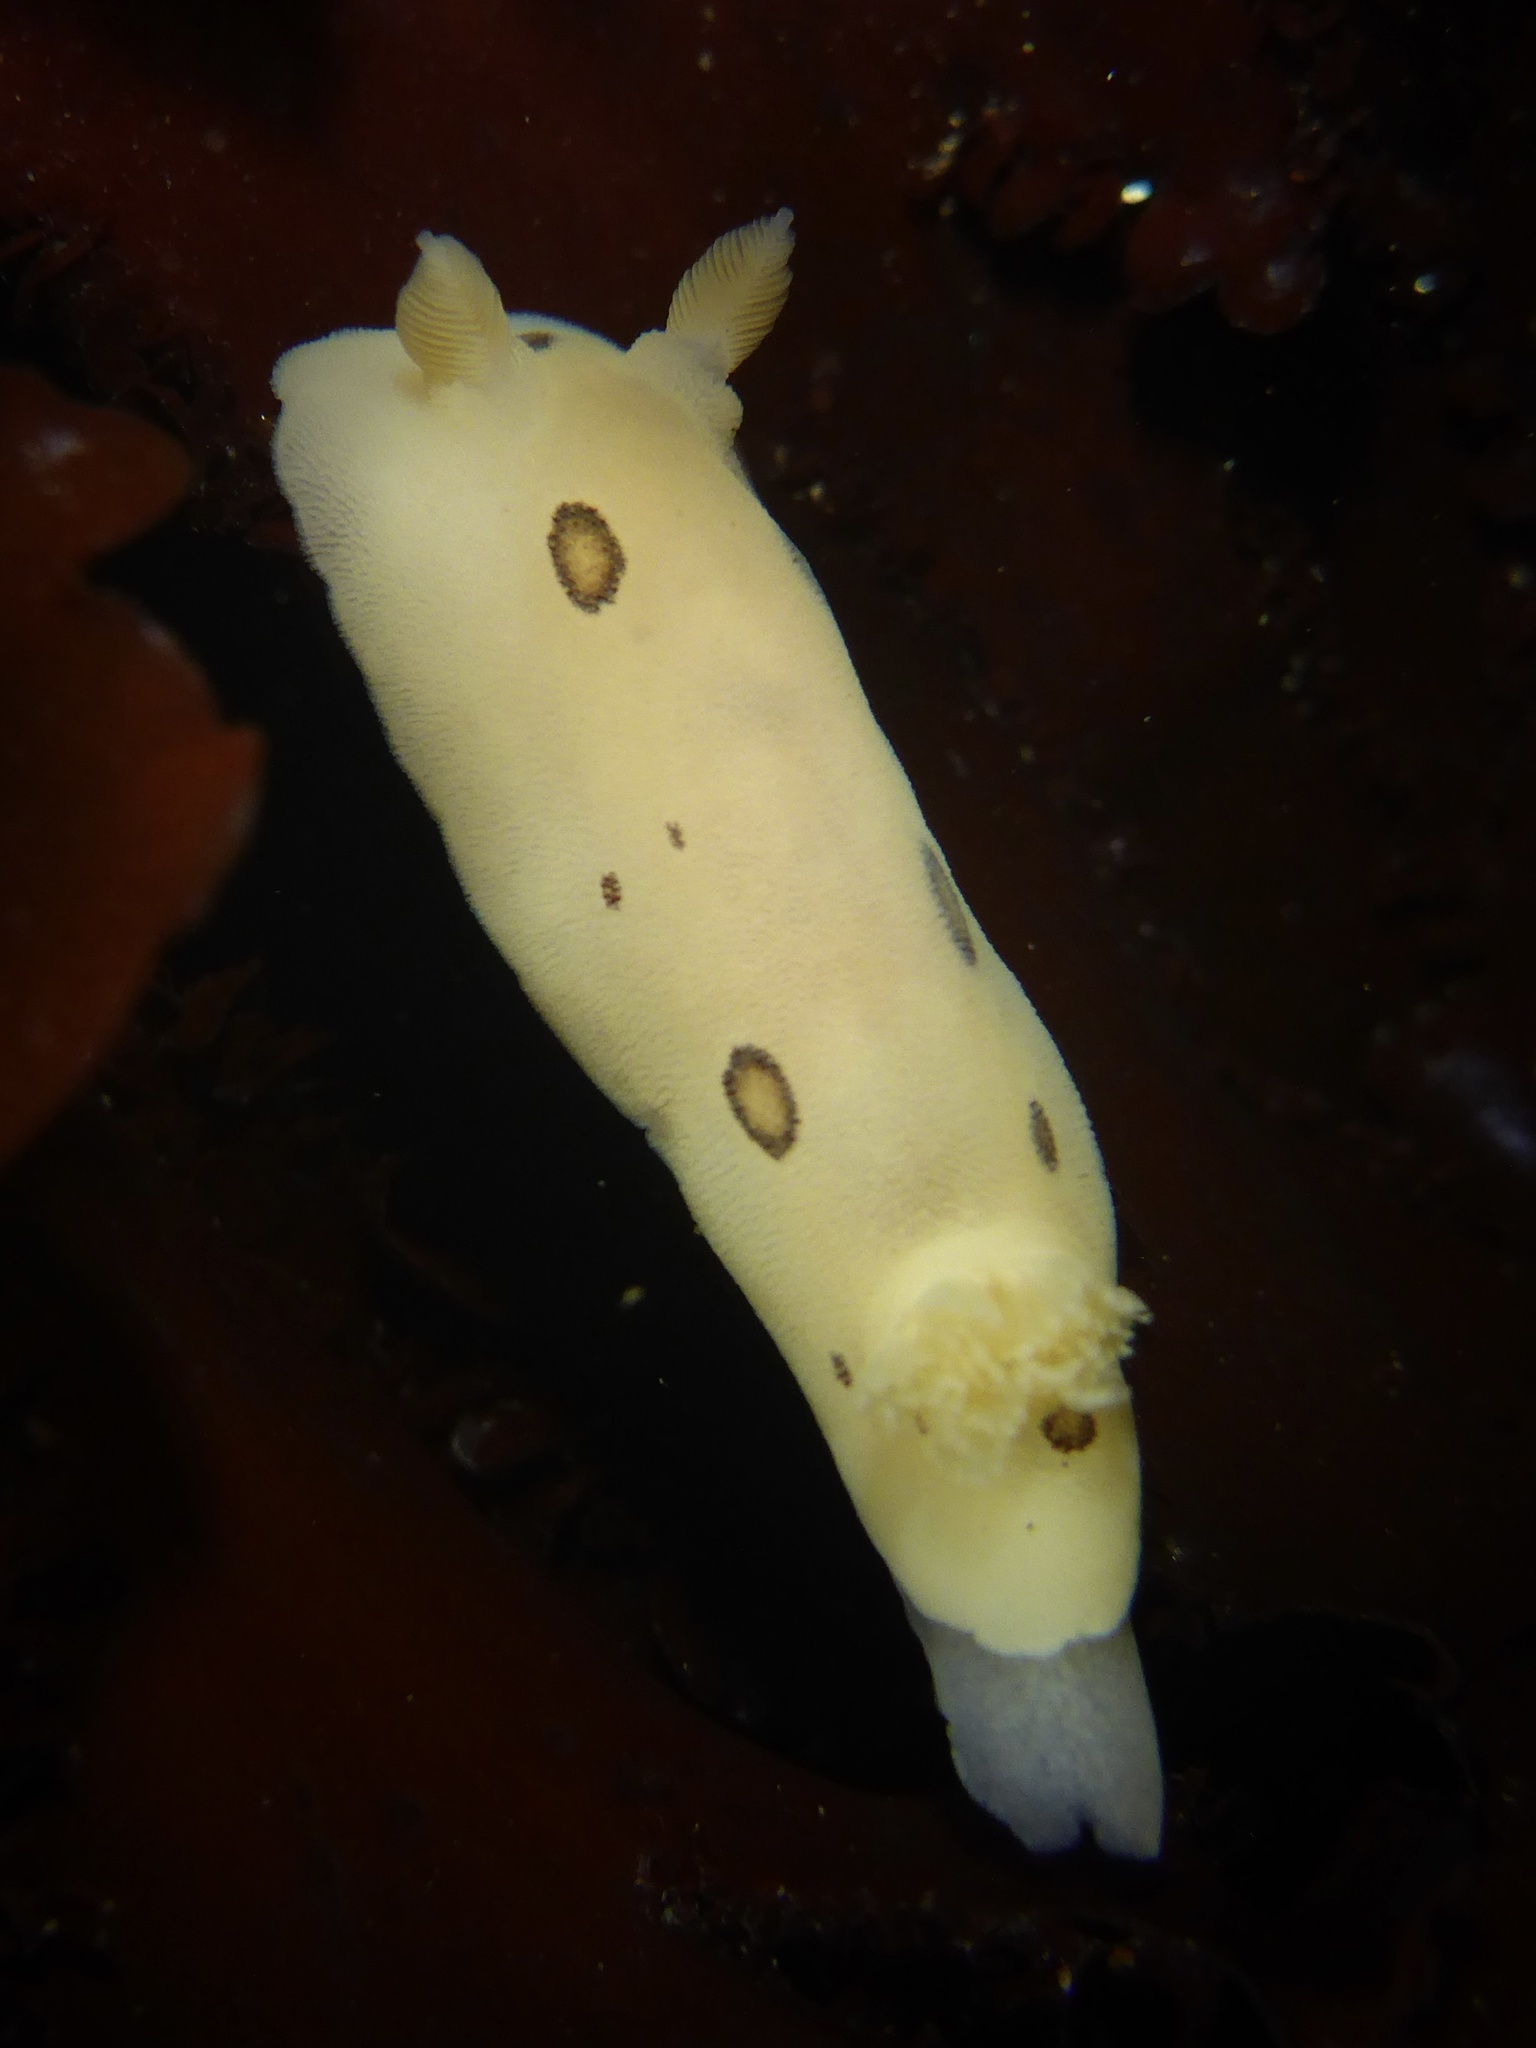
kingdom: Animalia
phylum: Mollusca
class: Gastropoda
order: Nudibranchia
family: Discodorididae
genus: Diaulula
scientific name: Diaulula sandiegensis
